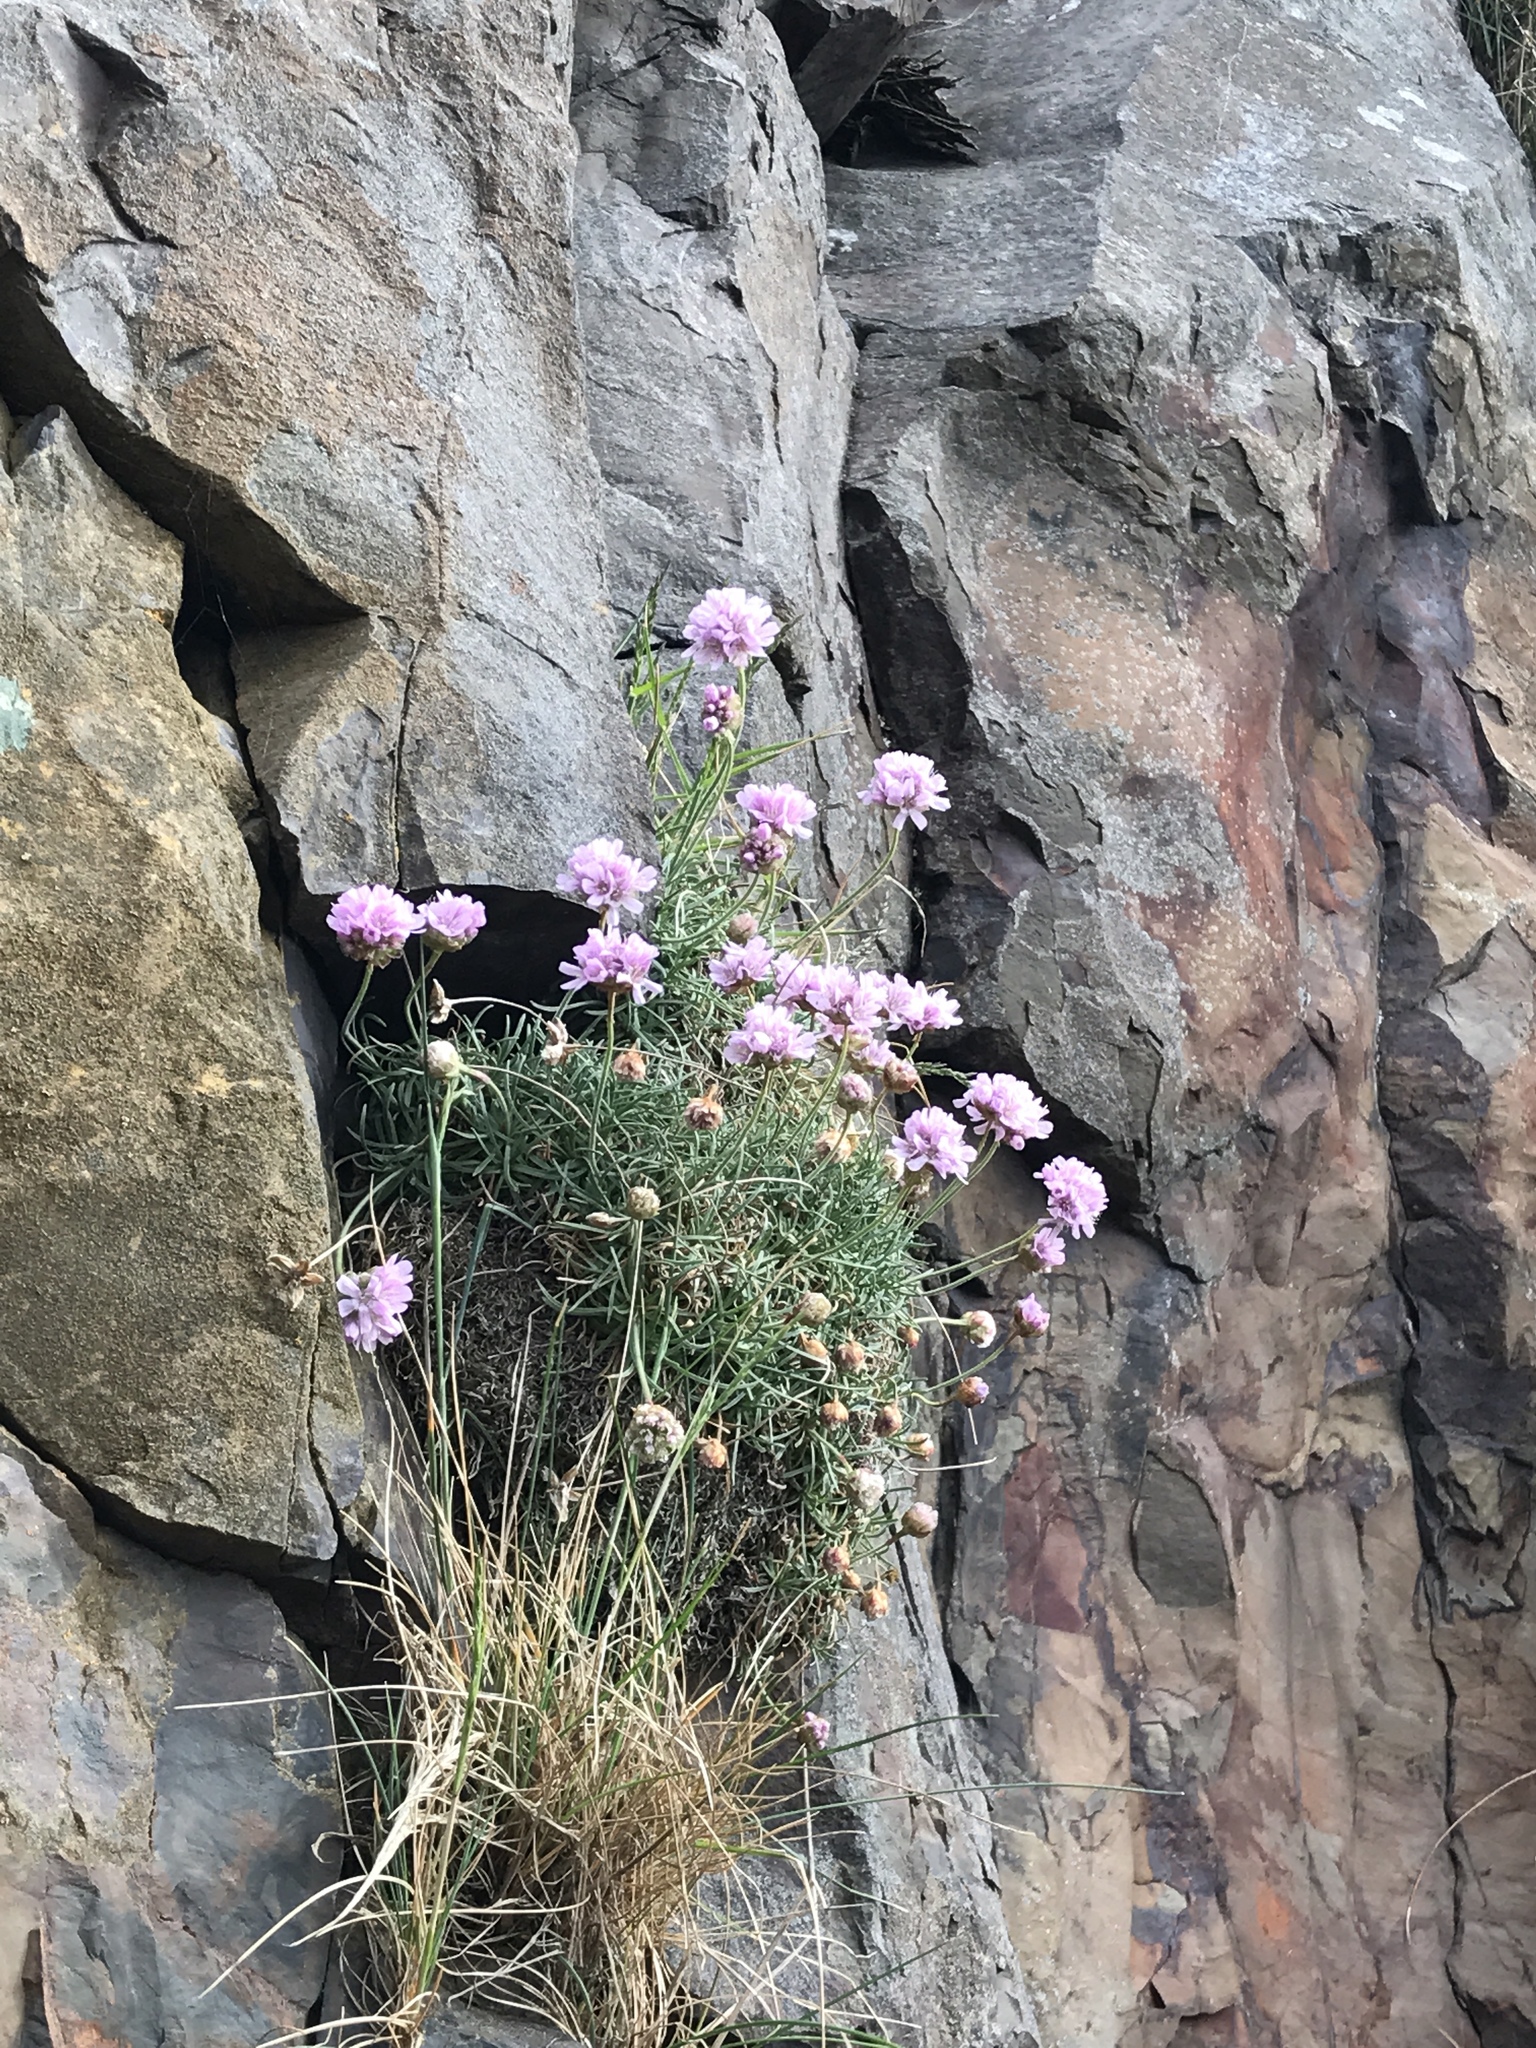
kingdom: Plantae
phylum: Tracheophyta
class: Magnoliopsida
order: Caryophyllales
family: Plumbaginaceae
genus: Armeria
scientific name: Armeria maritima
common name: Thrift
